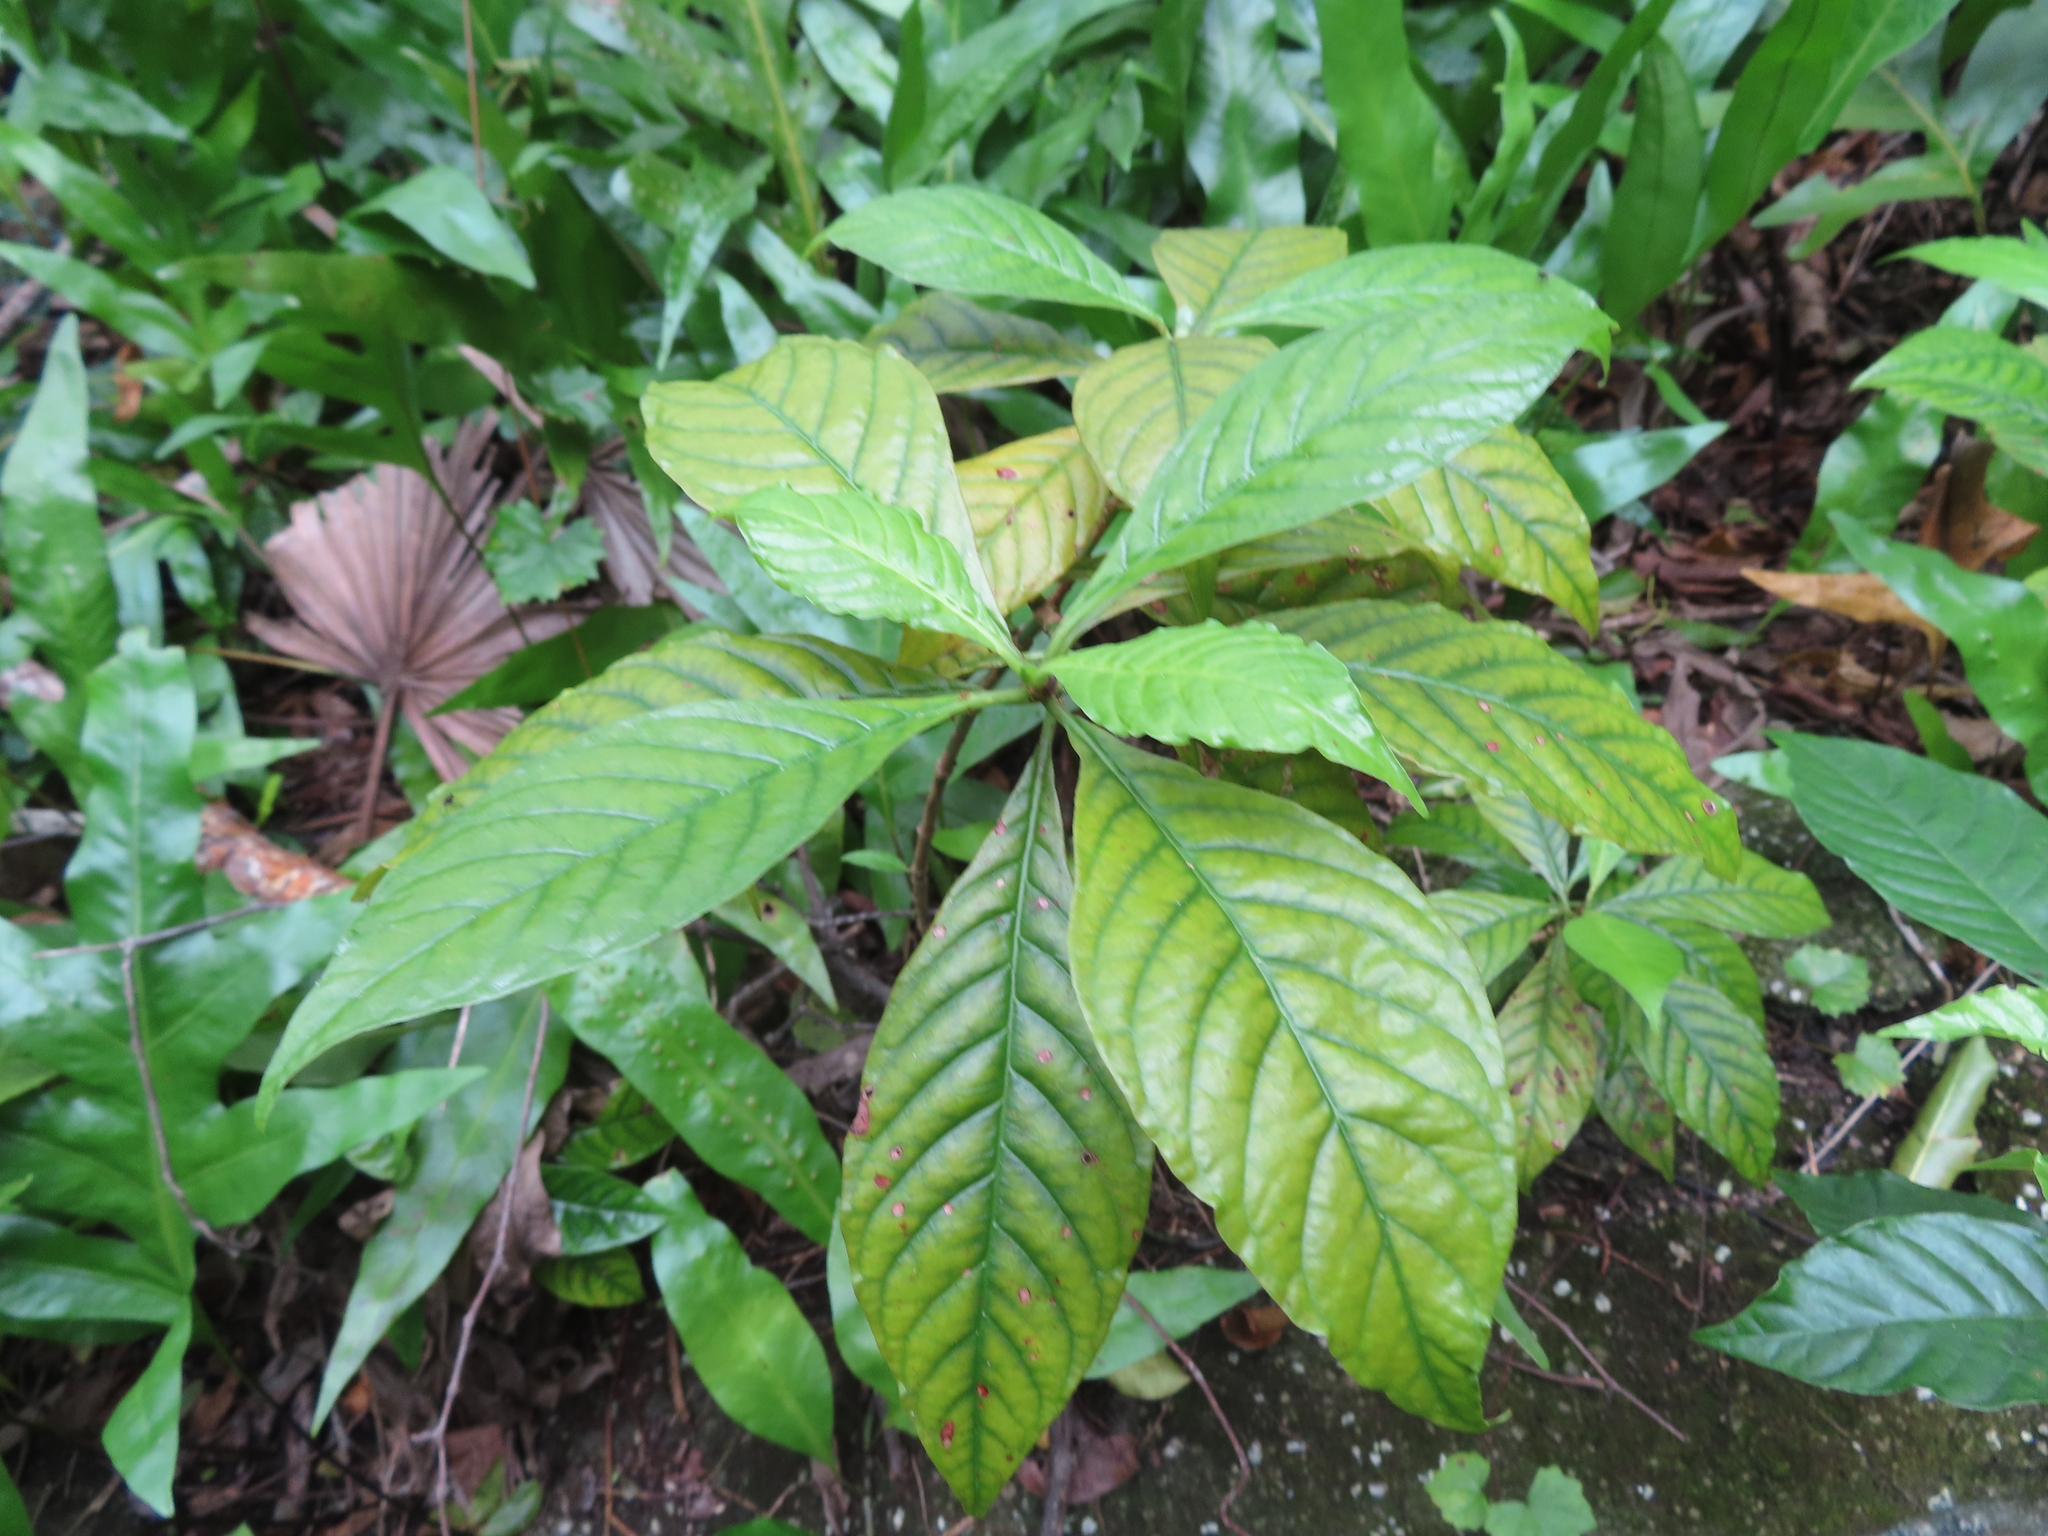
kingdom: Plantae
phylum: Tracheophyta
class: Magnoliopsida
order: Gentianales
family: Rubiaceae
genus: Psychotria
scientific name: Psychotria nervosa
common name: Bastard cankerberry
